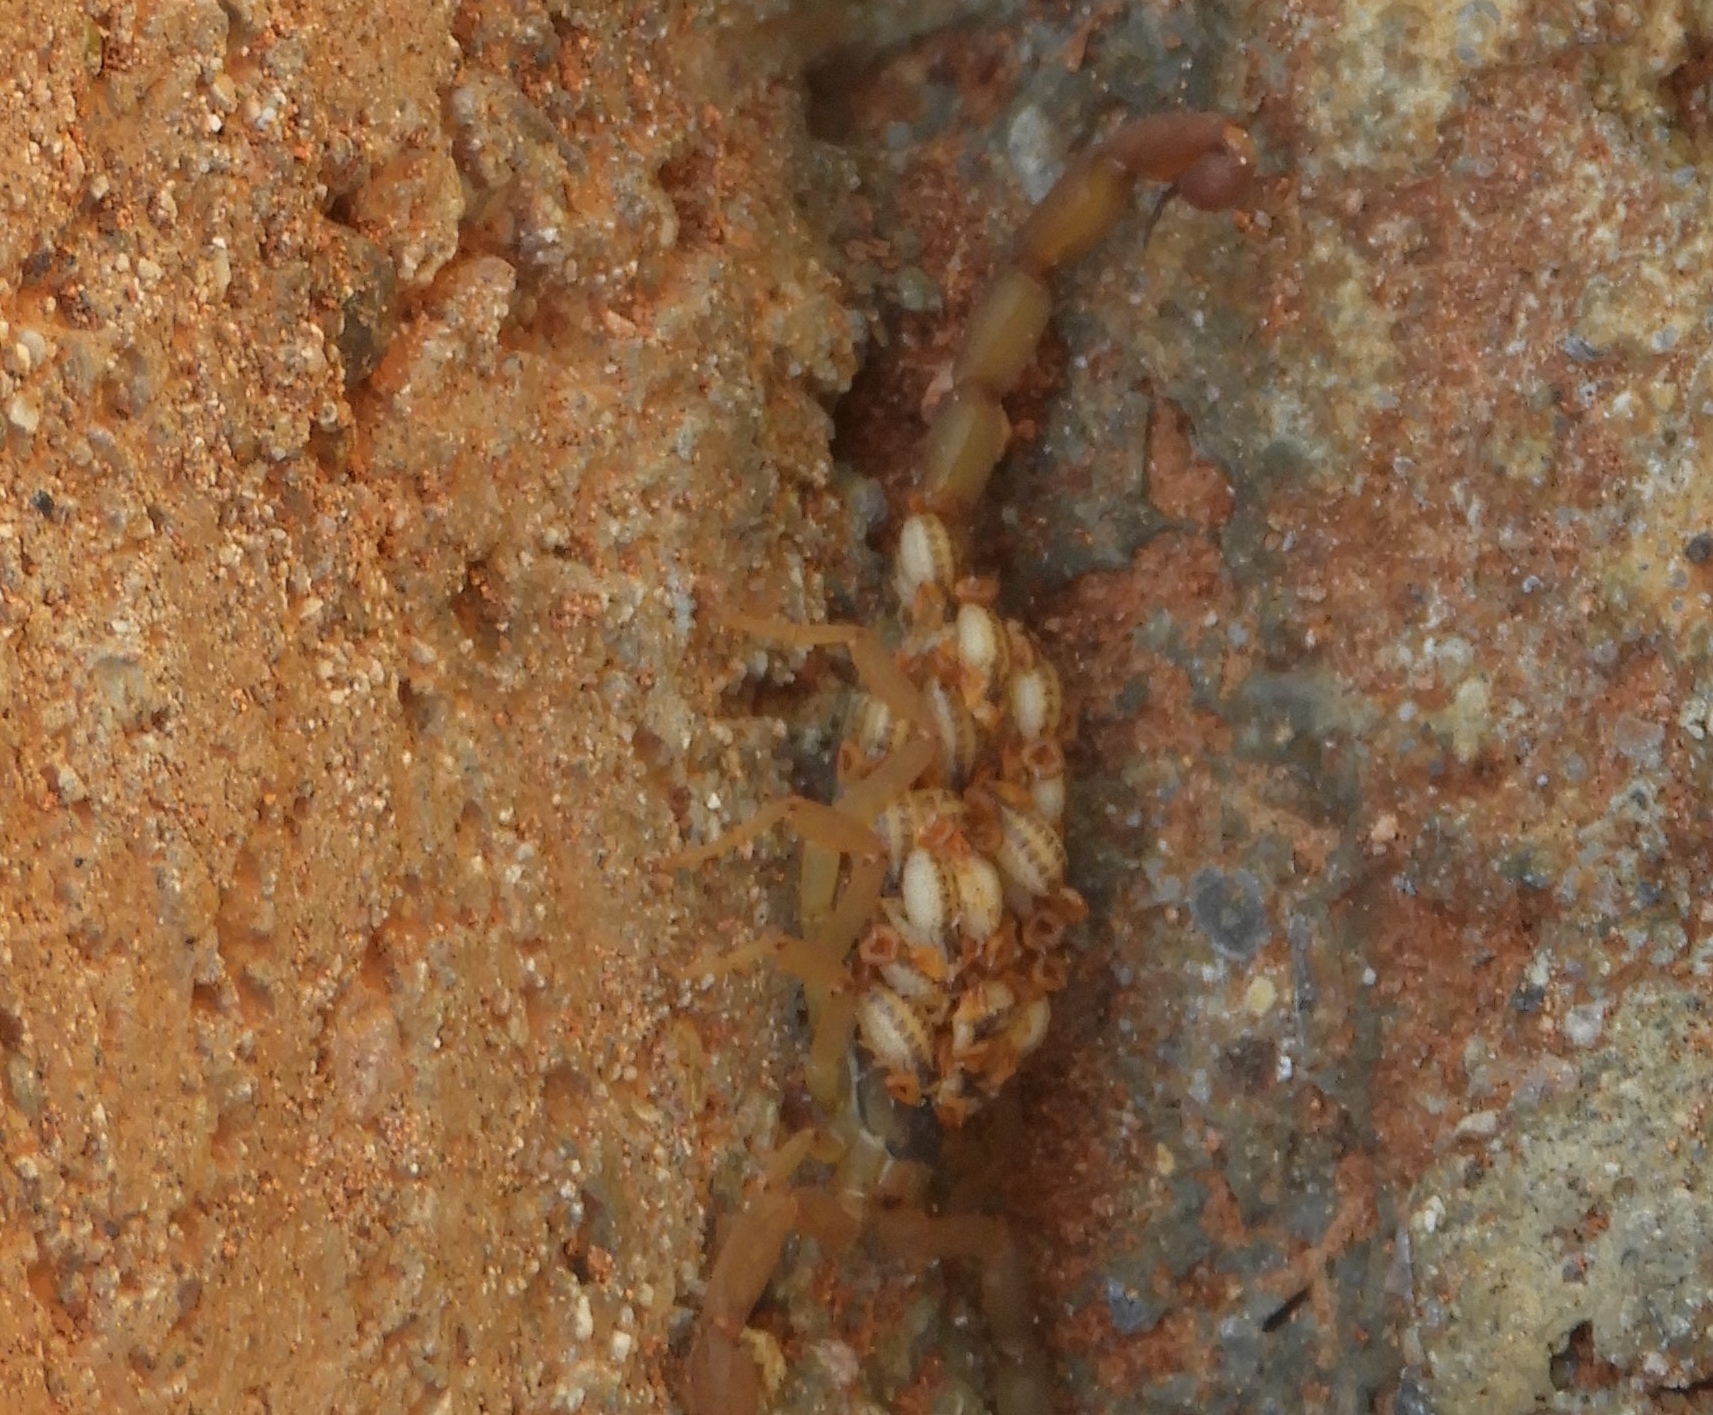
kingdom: Animalia
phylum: Arthropoda
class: Arachnida
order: Scorpiones
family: Buthidae
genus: Centruroides
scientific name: Centruroides baldazoi
